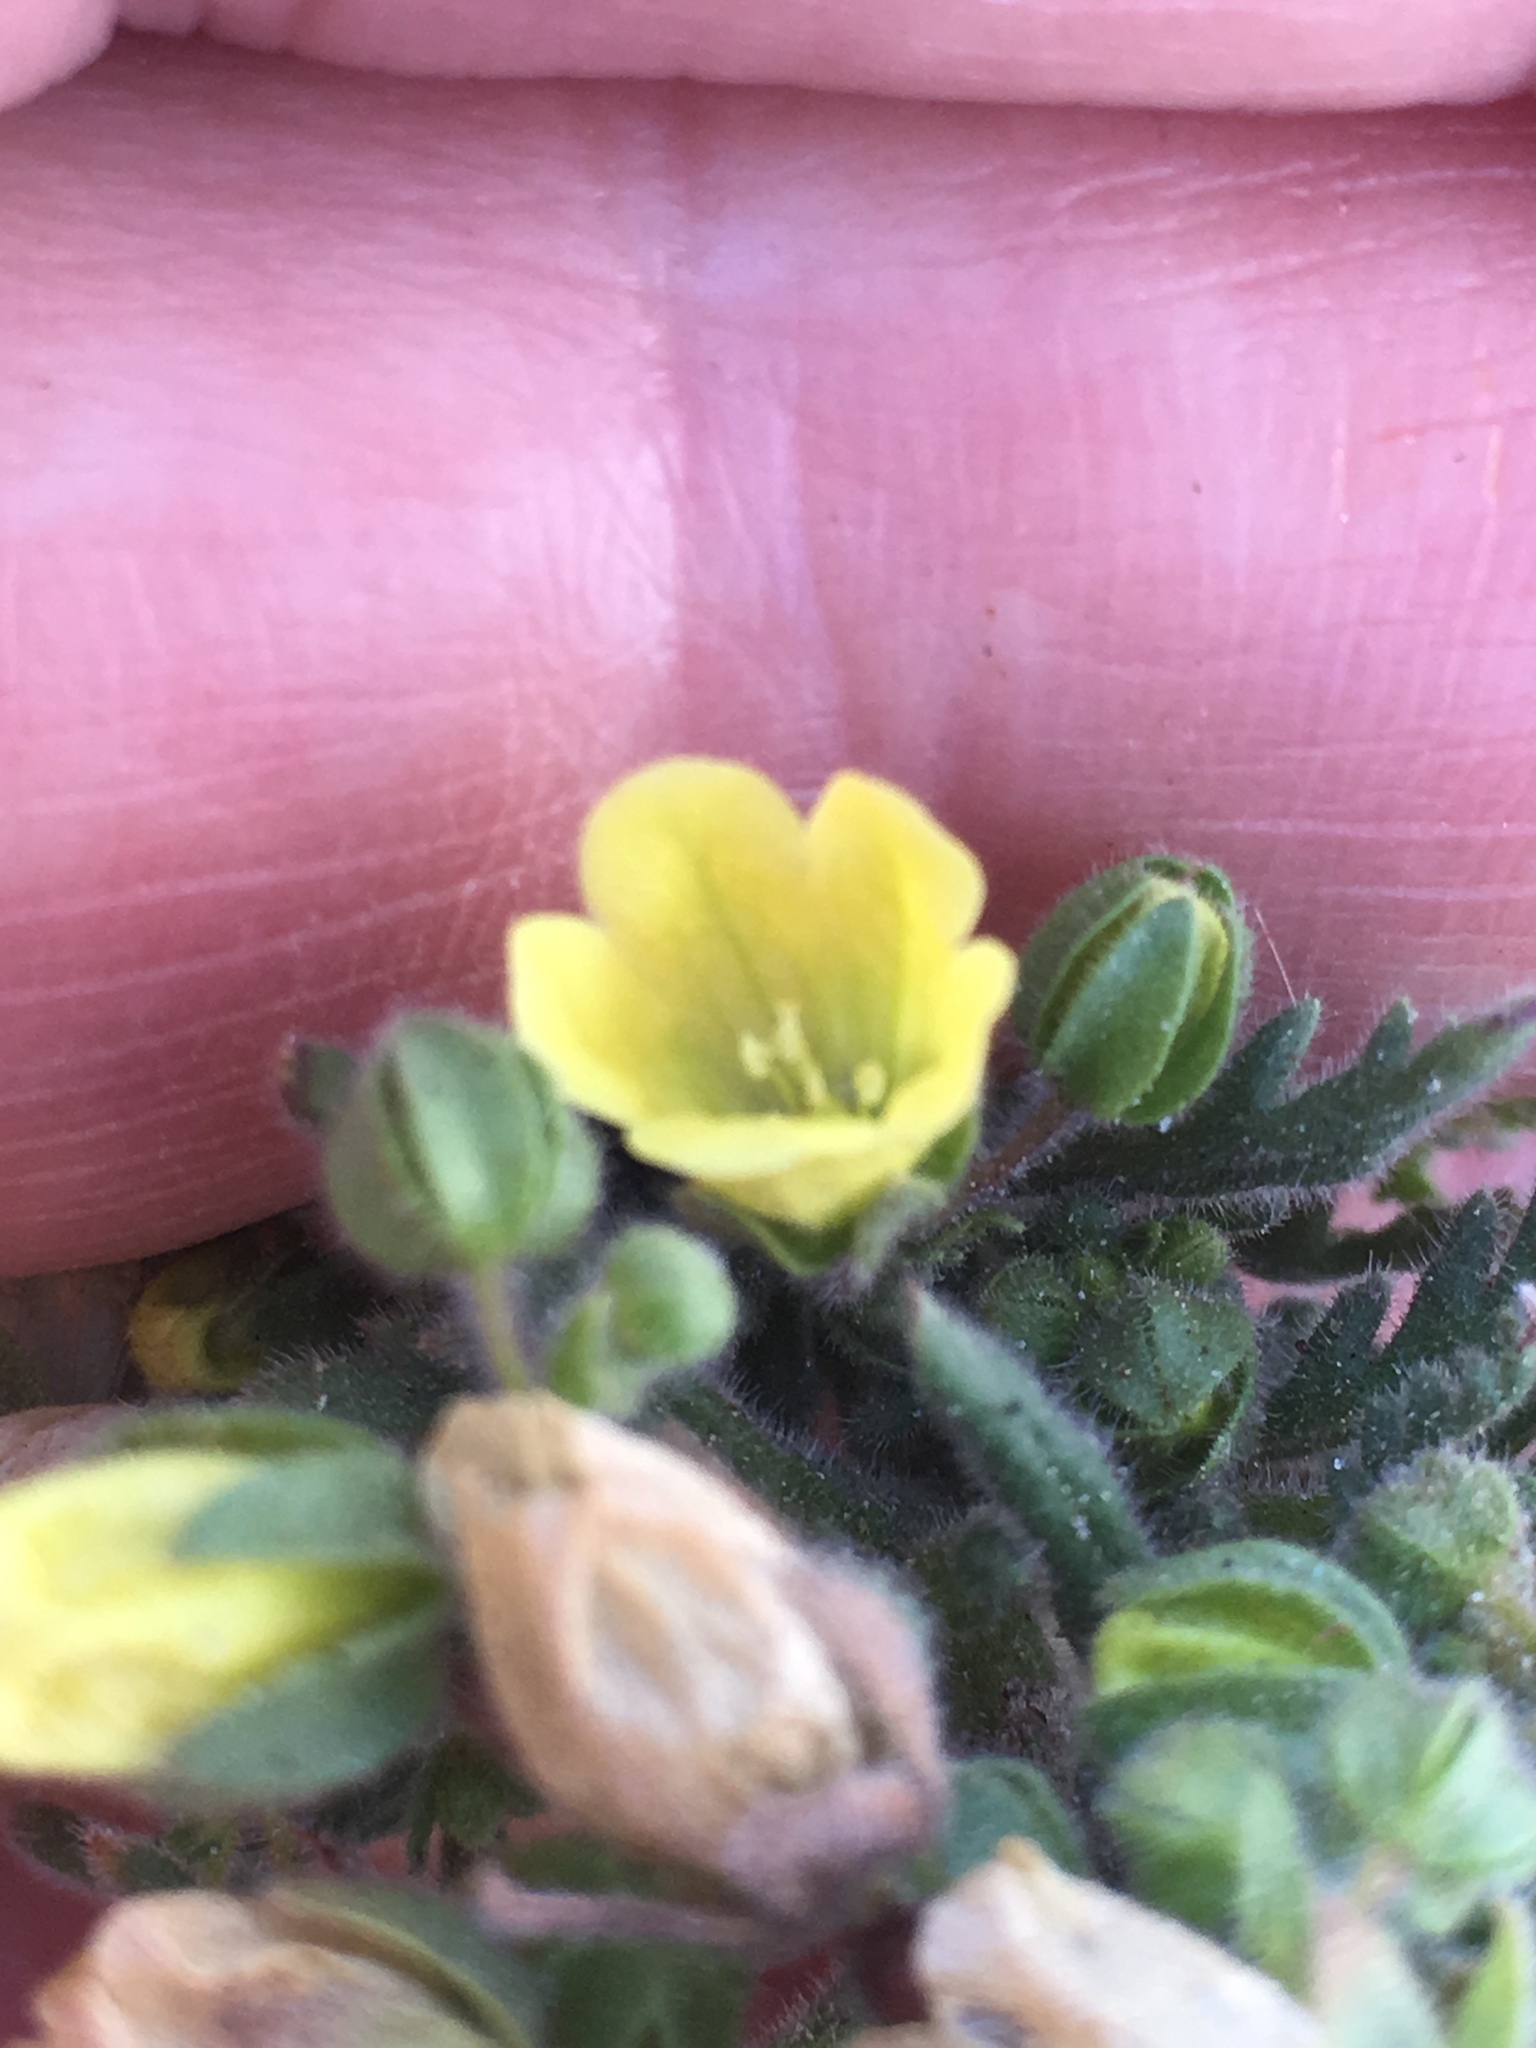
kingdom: Plantae
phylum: Tracheophyta
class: Magnoliopsida
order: Boraginales
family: Hydrophyllaceae
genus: Emmenanthe
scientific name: Emmenanthe penduliflora
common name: Whispering-bells
